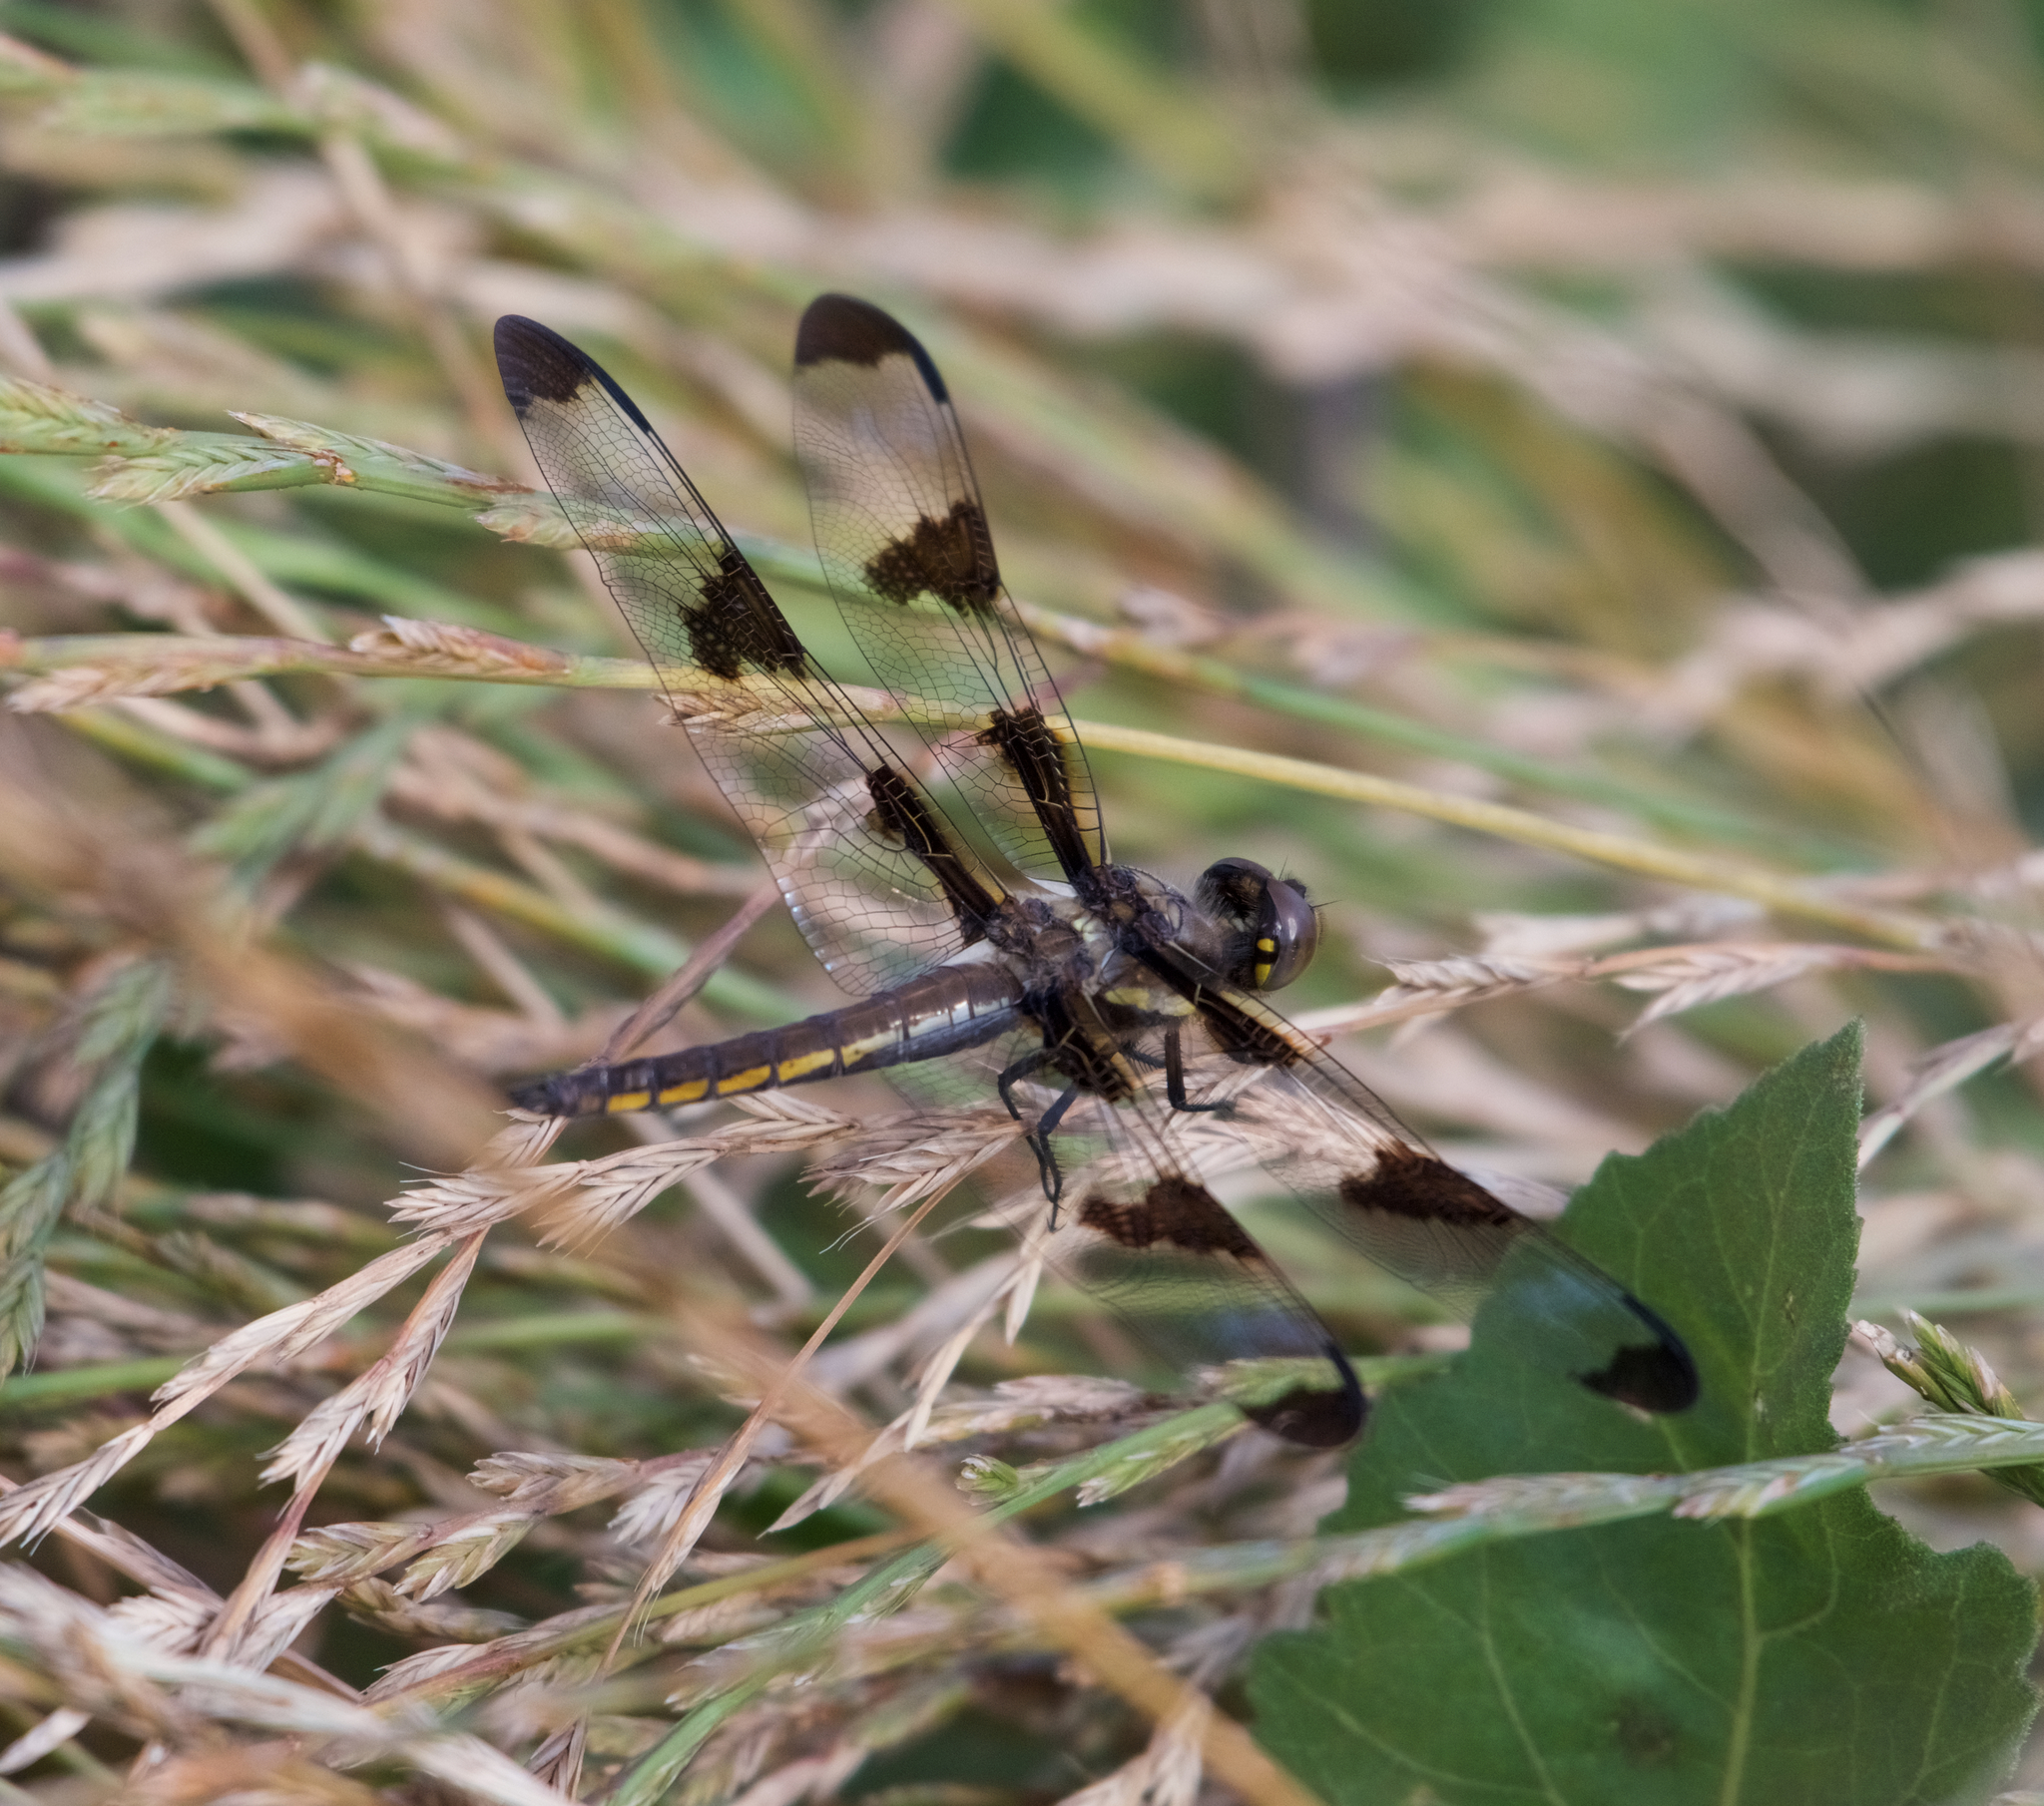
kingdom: Animalia
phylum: Arthropoda
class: Insecta
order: Odonata
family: Libellulidae
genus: Libellula
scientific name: Libellula pulchella
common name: Twelve-spotted skimmer
